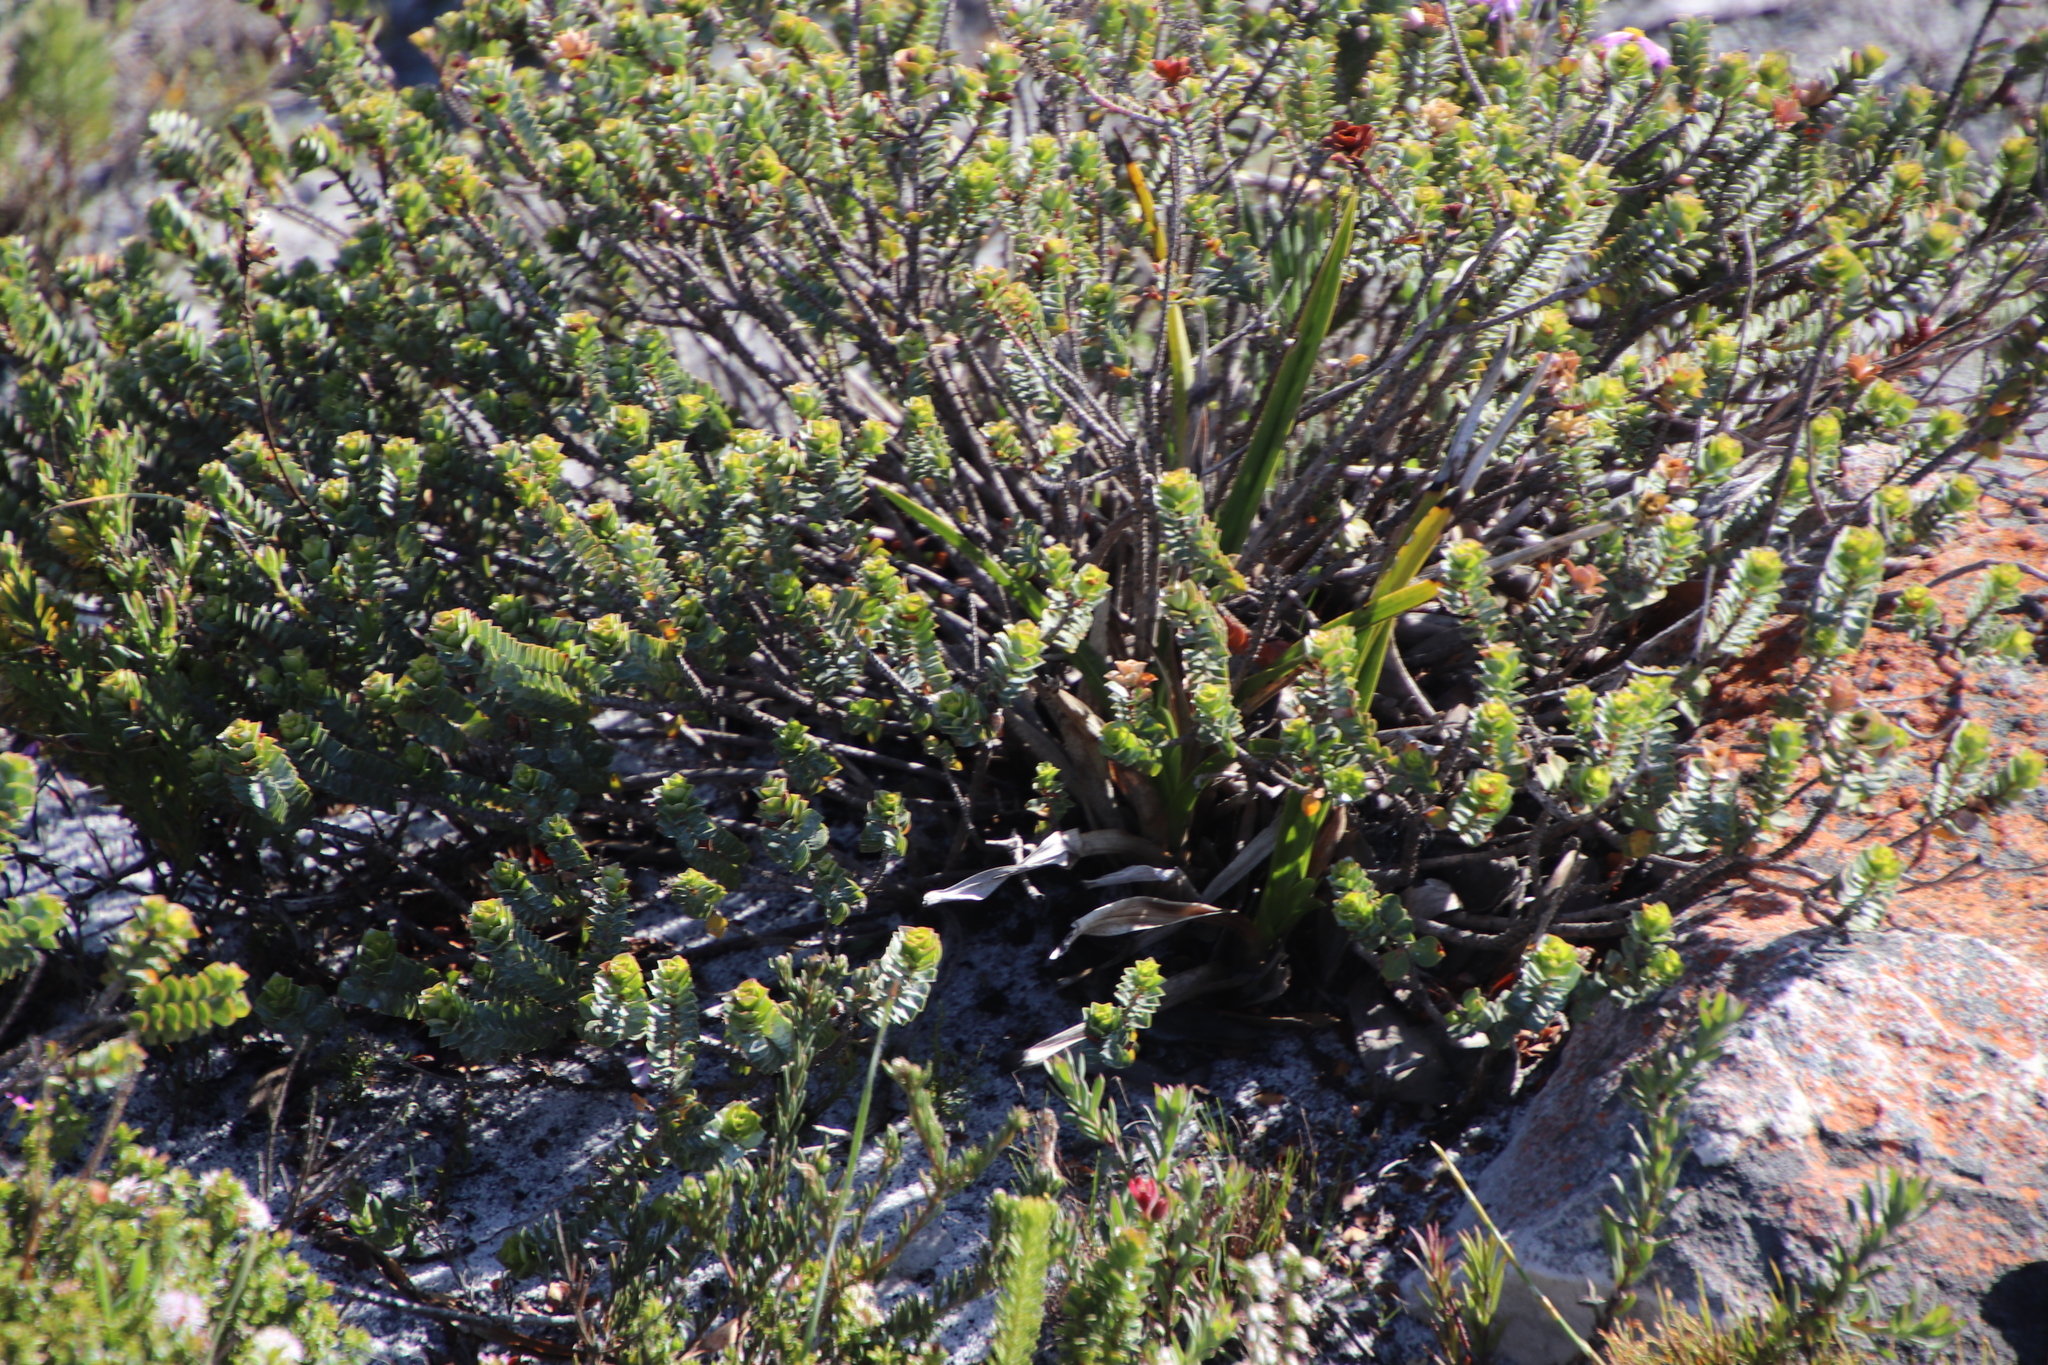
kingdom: Plantae
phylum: Tracheophyta
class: Magnoliopsida
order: Myrtales
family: Penaeaceae
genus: Saltera
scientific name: Saltera sarcocolla
